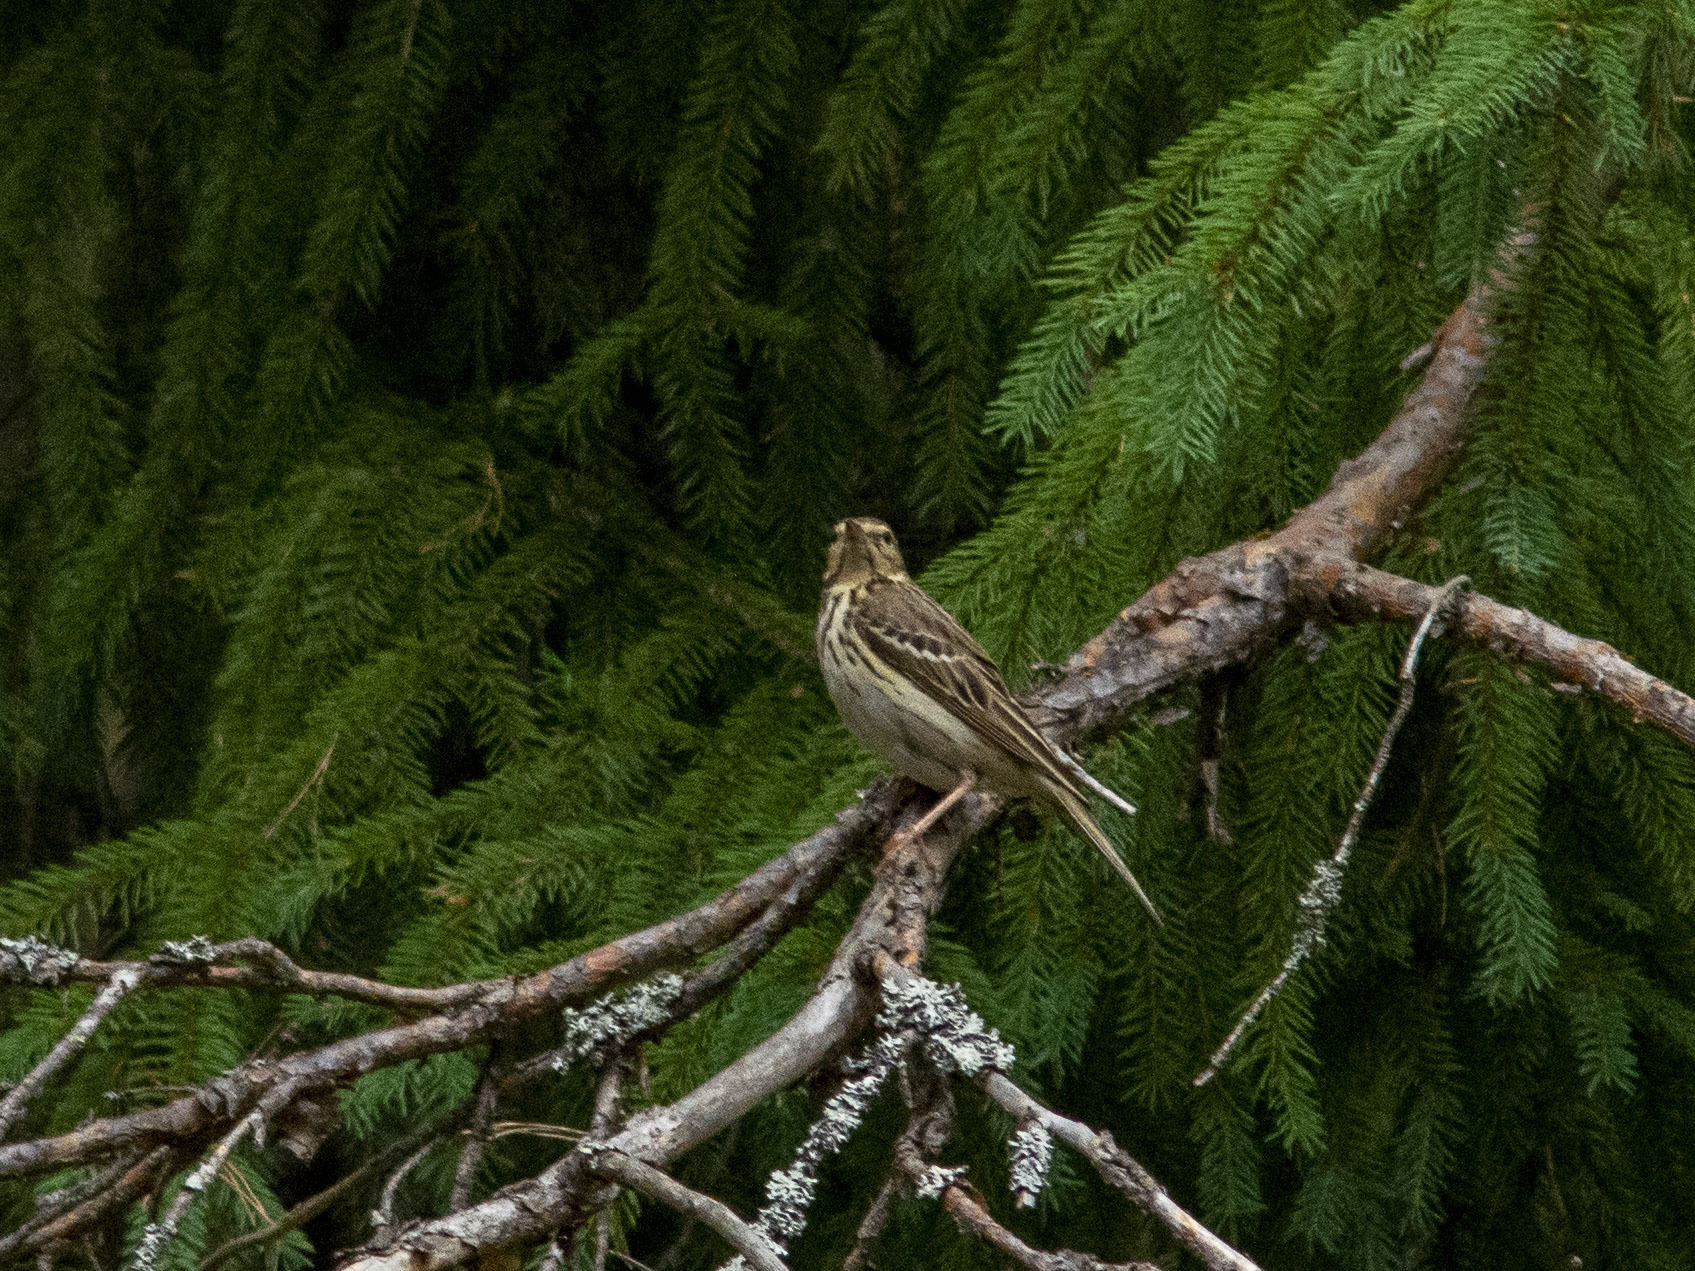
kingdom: Animalia
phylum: Chordata
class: Aves
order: Passeriformes
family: Motacillidae
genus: Anthus
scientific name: Anthus trivialis
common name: Tree pipit
